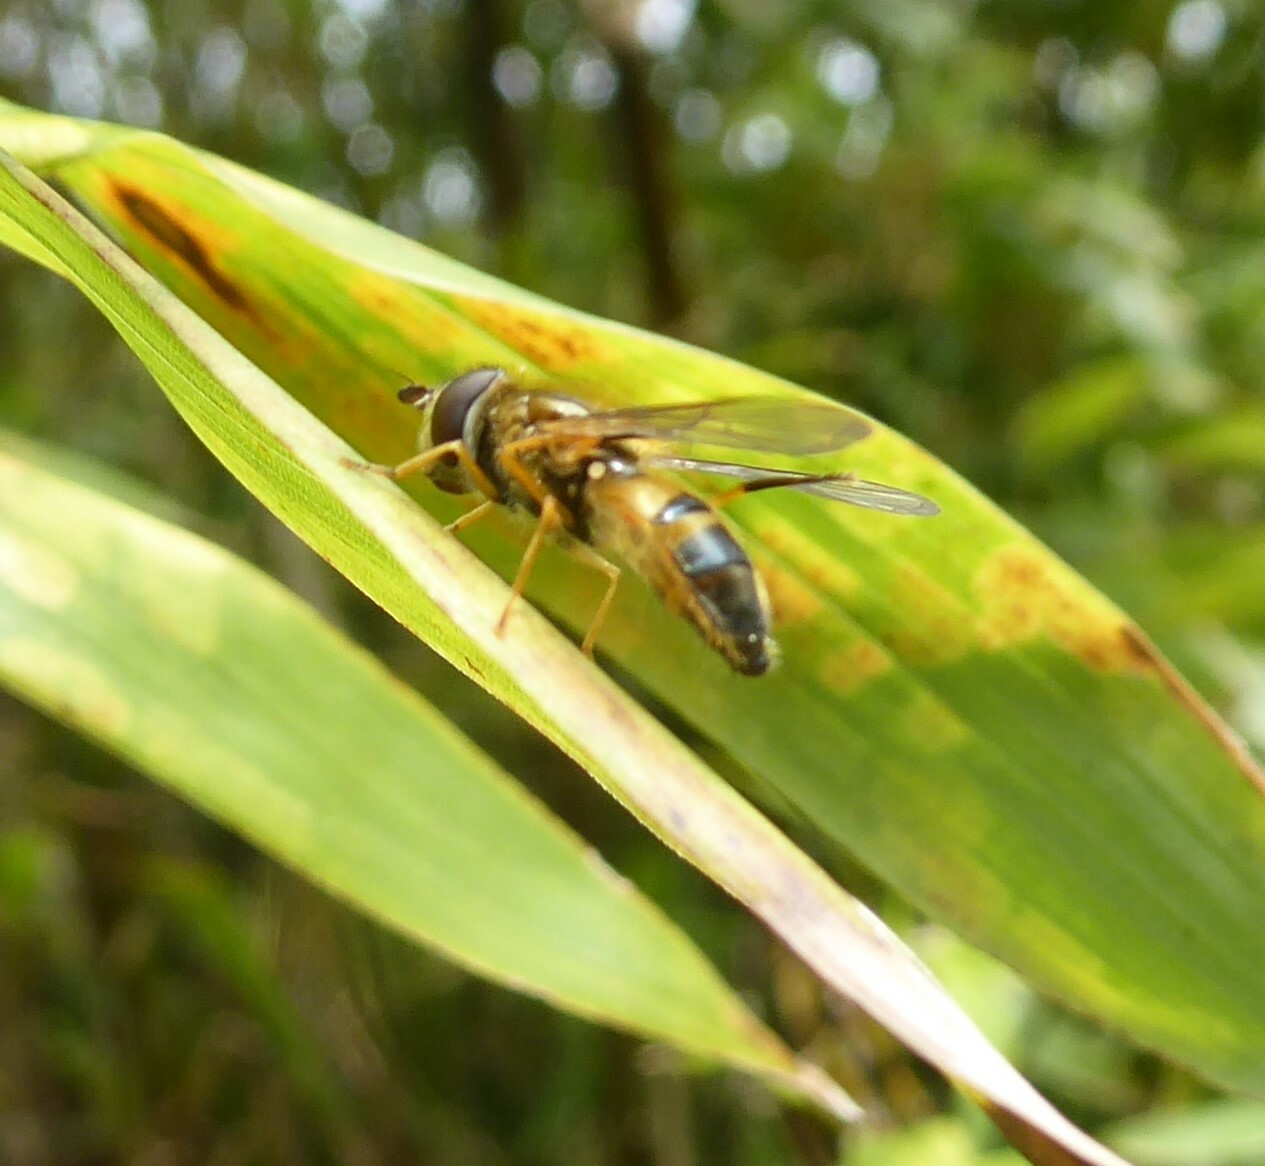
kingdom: Animalia
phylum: Arthropoda
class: Insecta
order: Diptera
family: Syrphidae
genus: Epistrophe
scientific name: Epistrophe eligans
